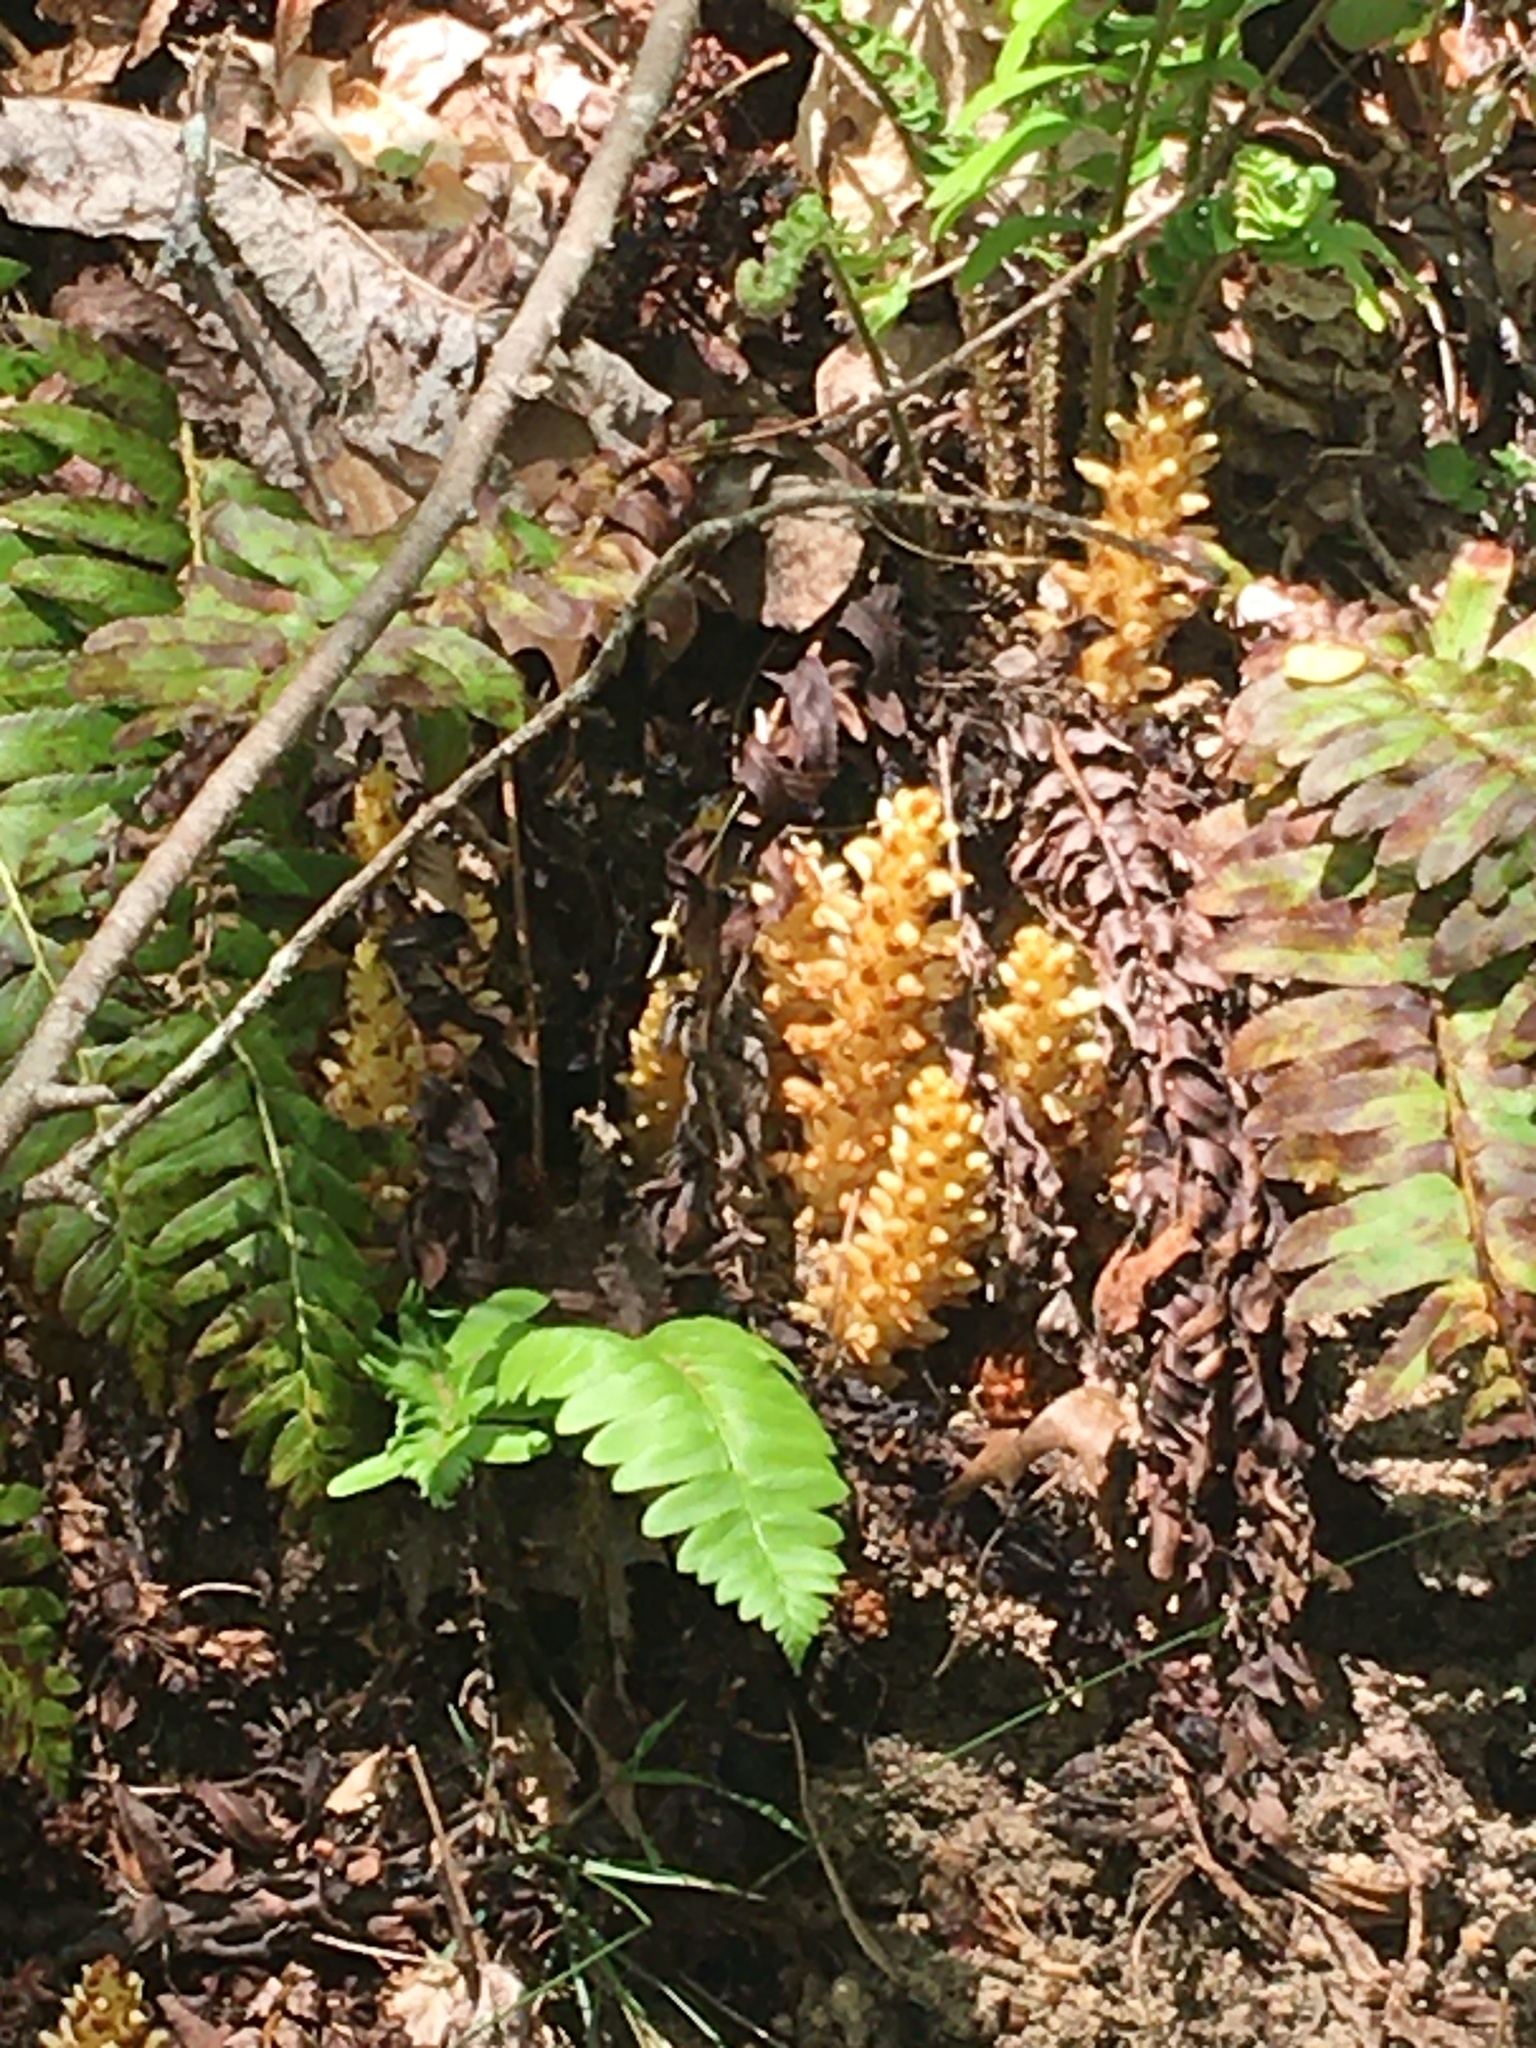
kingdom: Plantae
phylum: Tracheophyta
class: Magnoliopsida
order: Lamiales
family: Orobanchaceae
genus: Conopholis
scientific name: Conopholis americana
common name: American cancer-root
